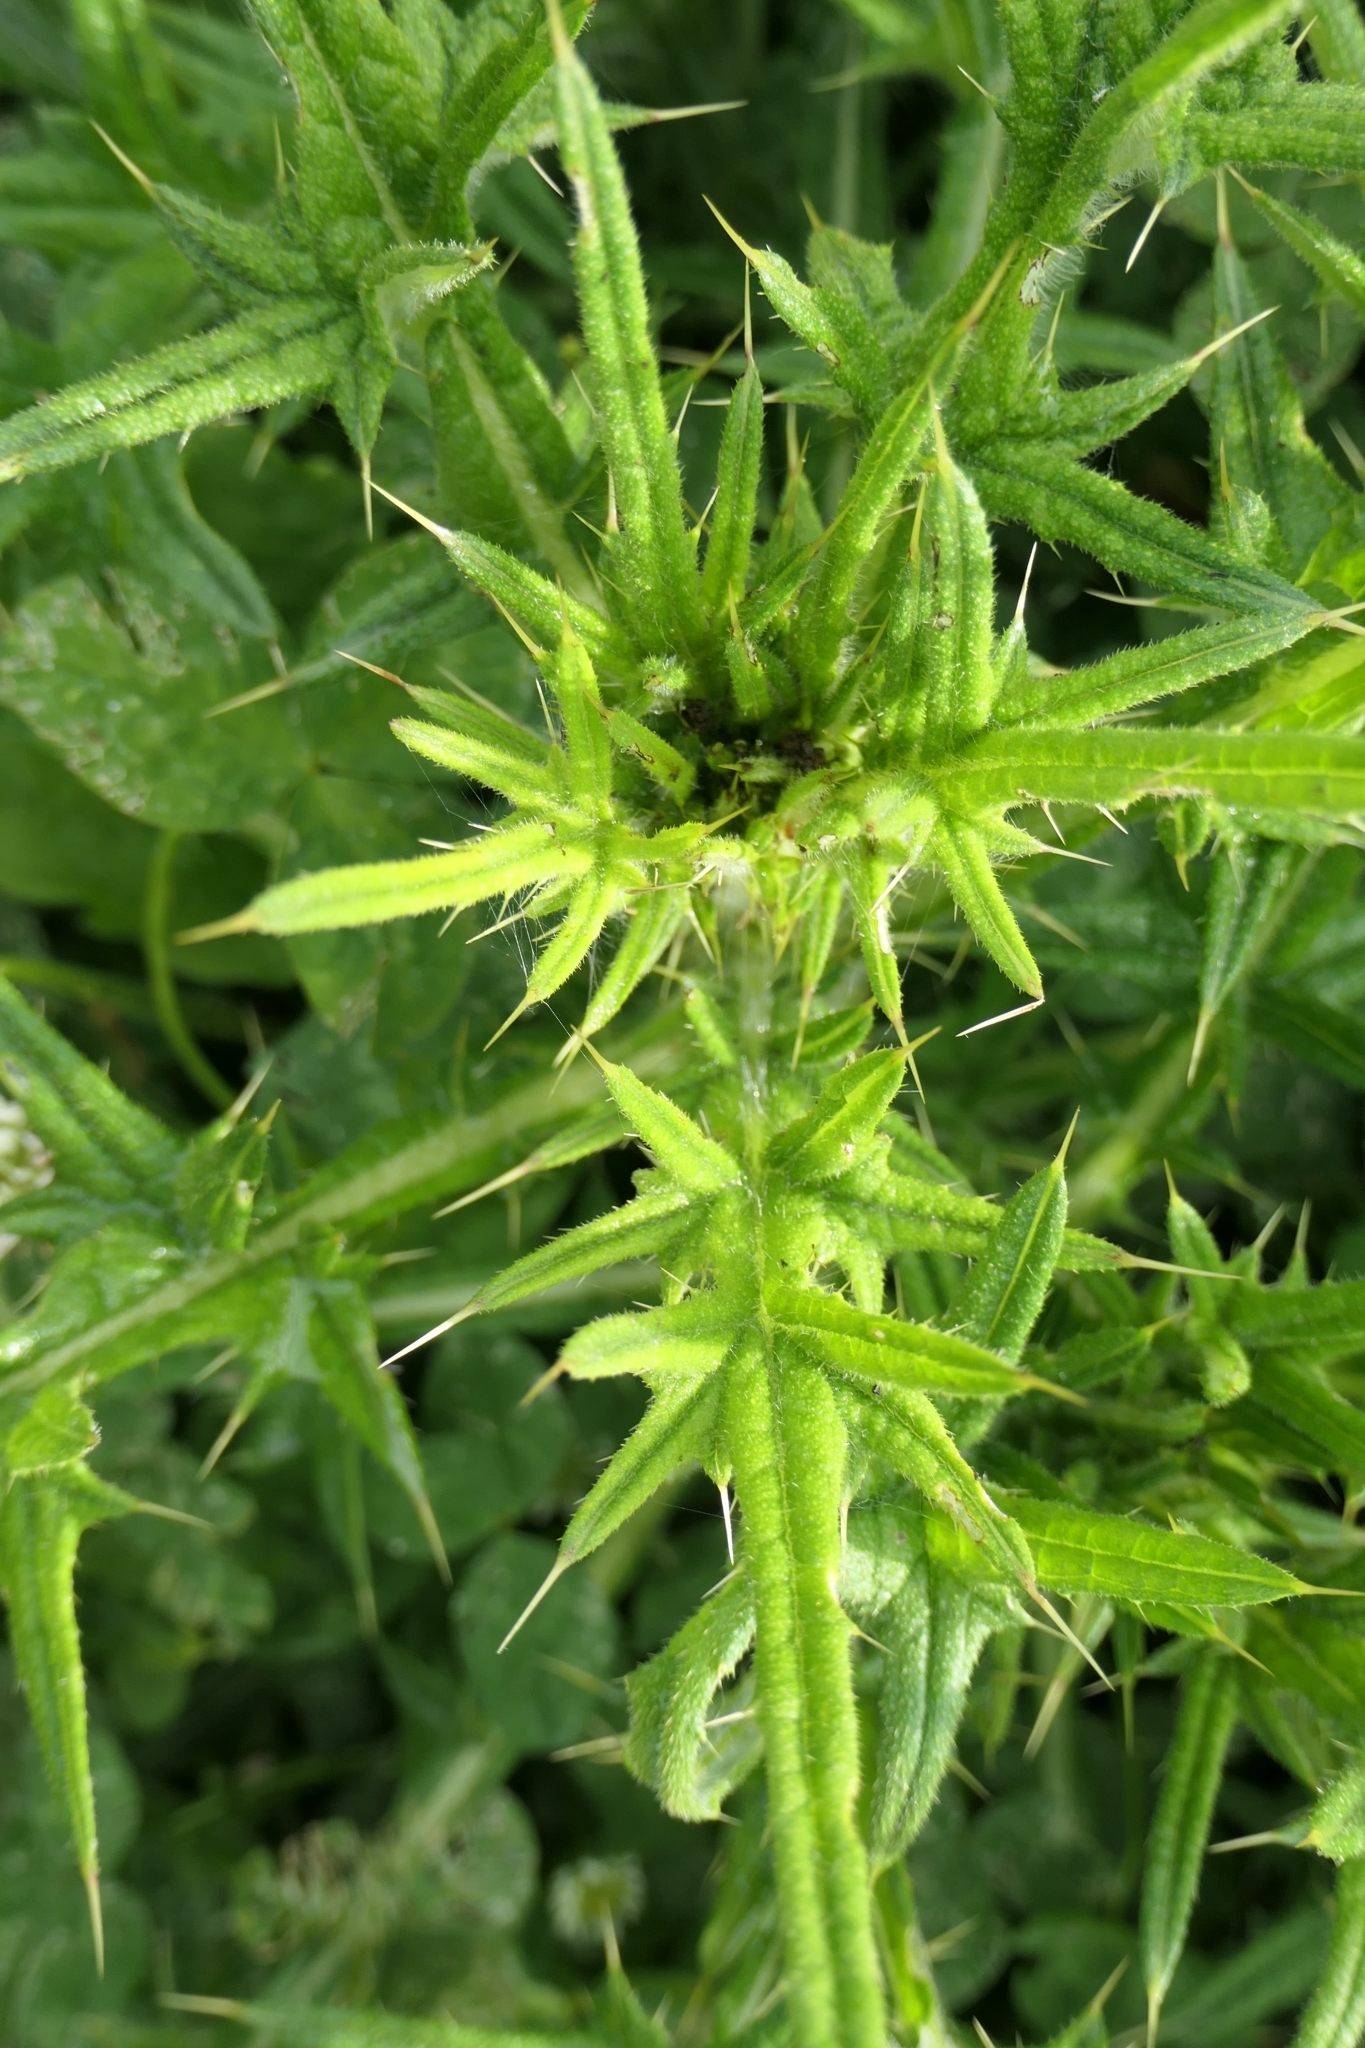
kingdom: Animalia
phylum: Arthropoda
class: Insecta
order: Coleoptera
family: Curculionidae
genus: Rhinocyllus
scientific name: Rhinocyllus conicus
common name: Weevil
